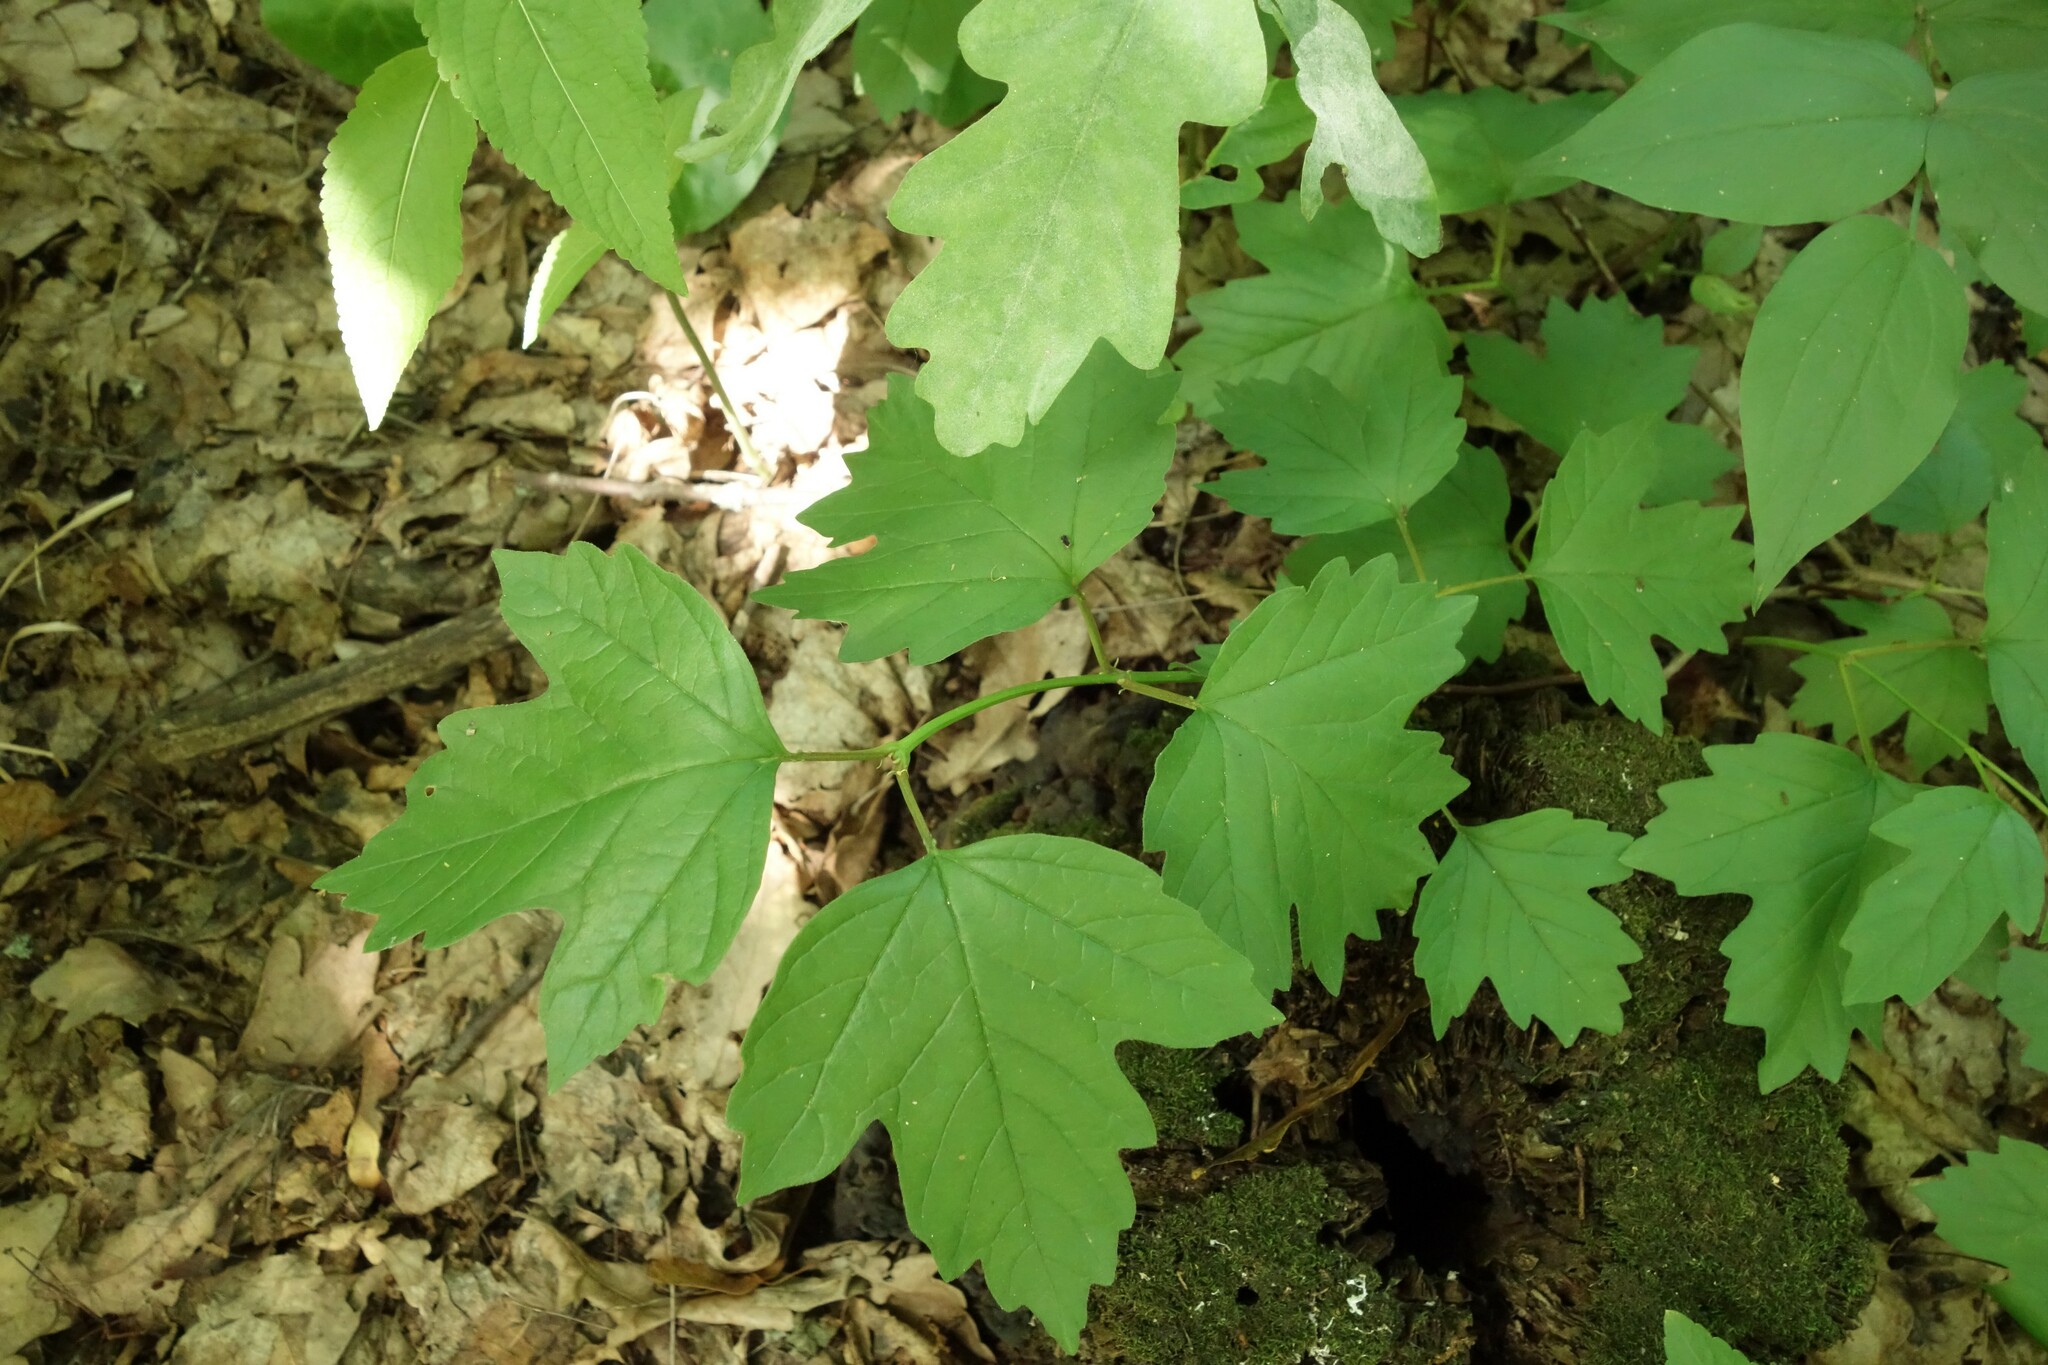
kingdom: Plantae
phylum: Tracheophyta
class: Magnoliopsida
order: Dipsacales
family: Viburnaceae
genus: Viburnum
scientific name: Viburnum opulus
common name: Guelder-rose
